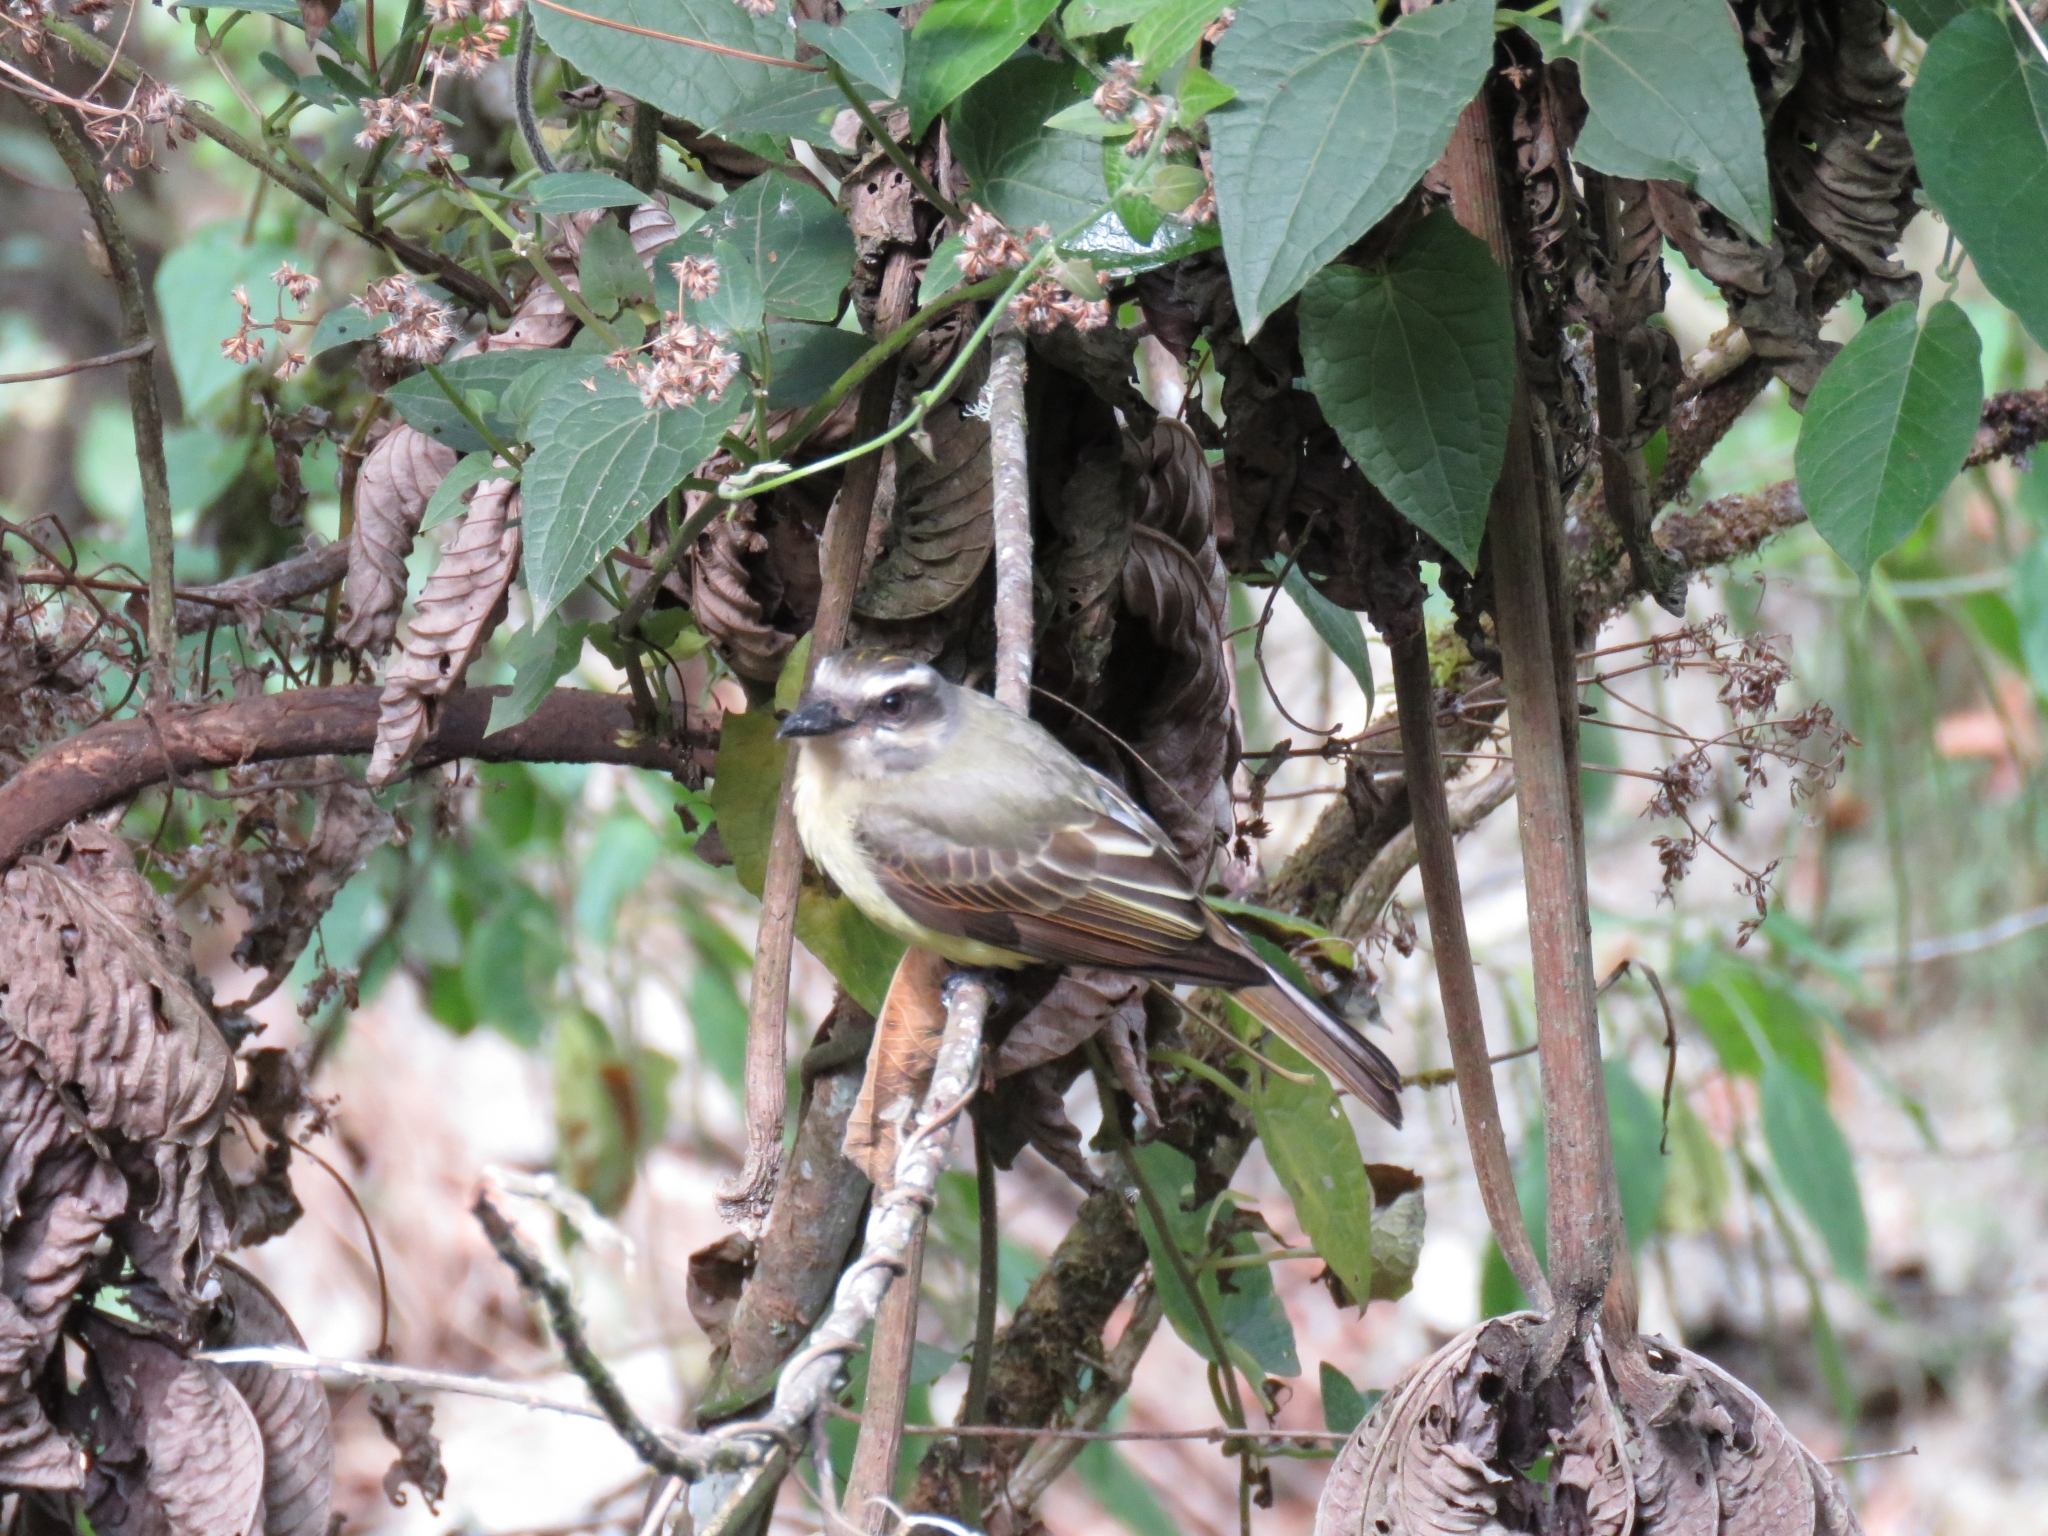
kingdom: Animalia
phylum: Chordata
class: Aves
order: Passeriformes
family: Tyrannidae
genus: Myiodynastes
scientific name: Myiodynastes chrysocephalus
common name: Golden-crowned flycatcher
